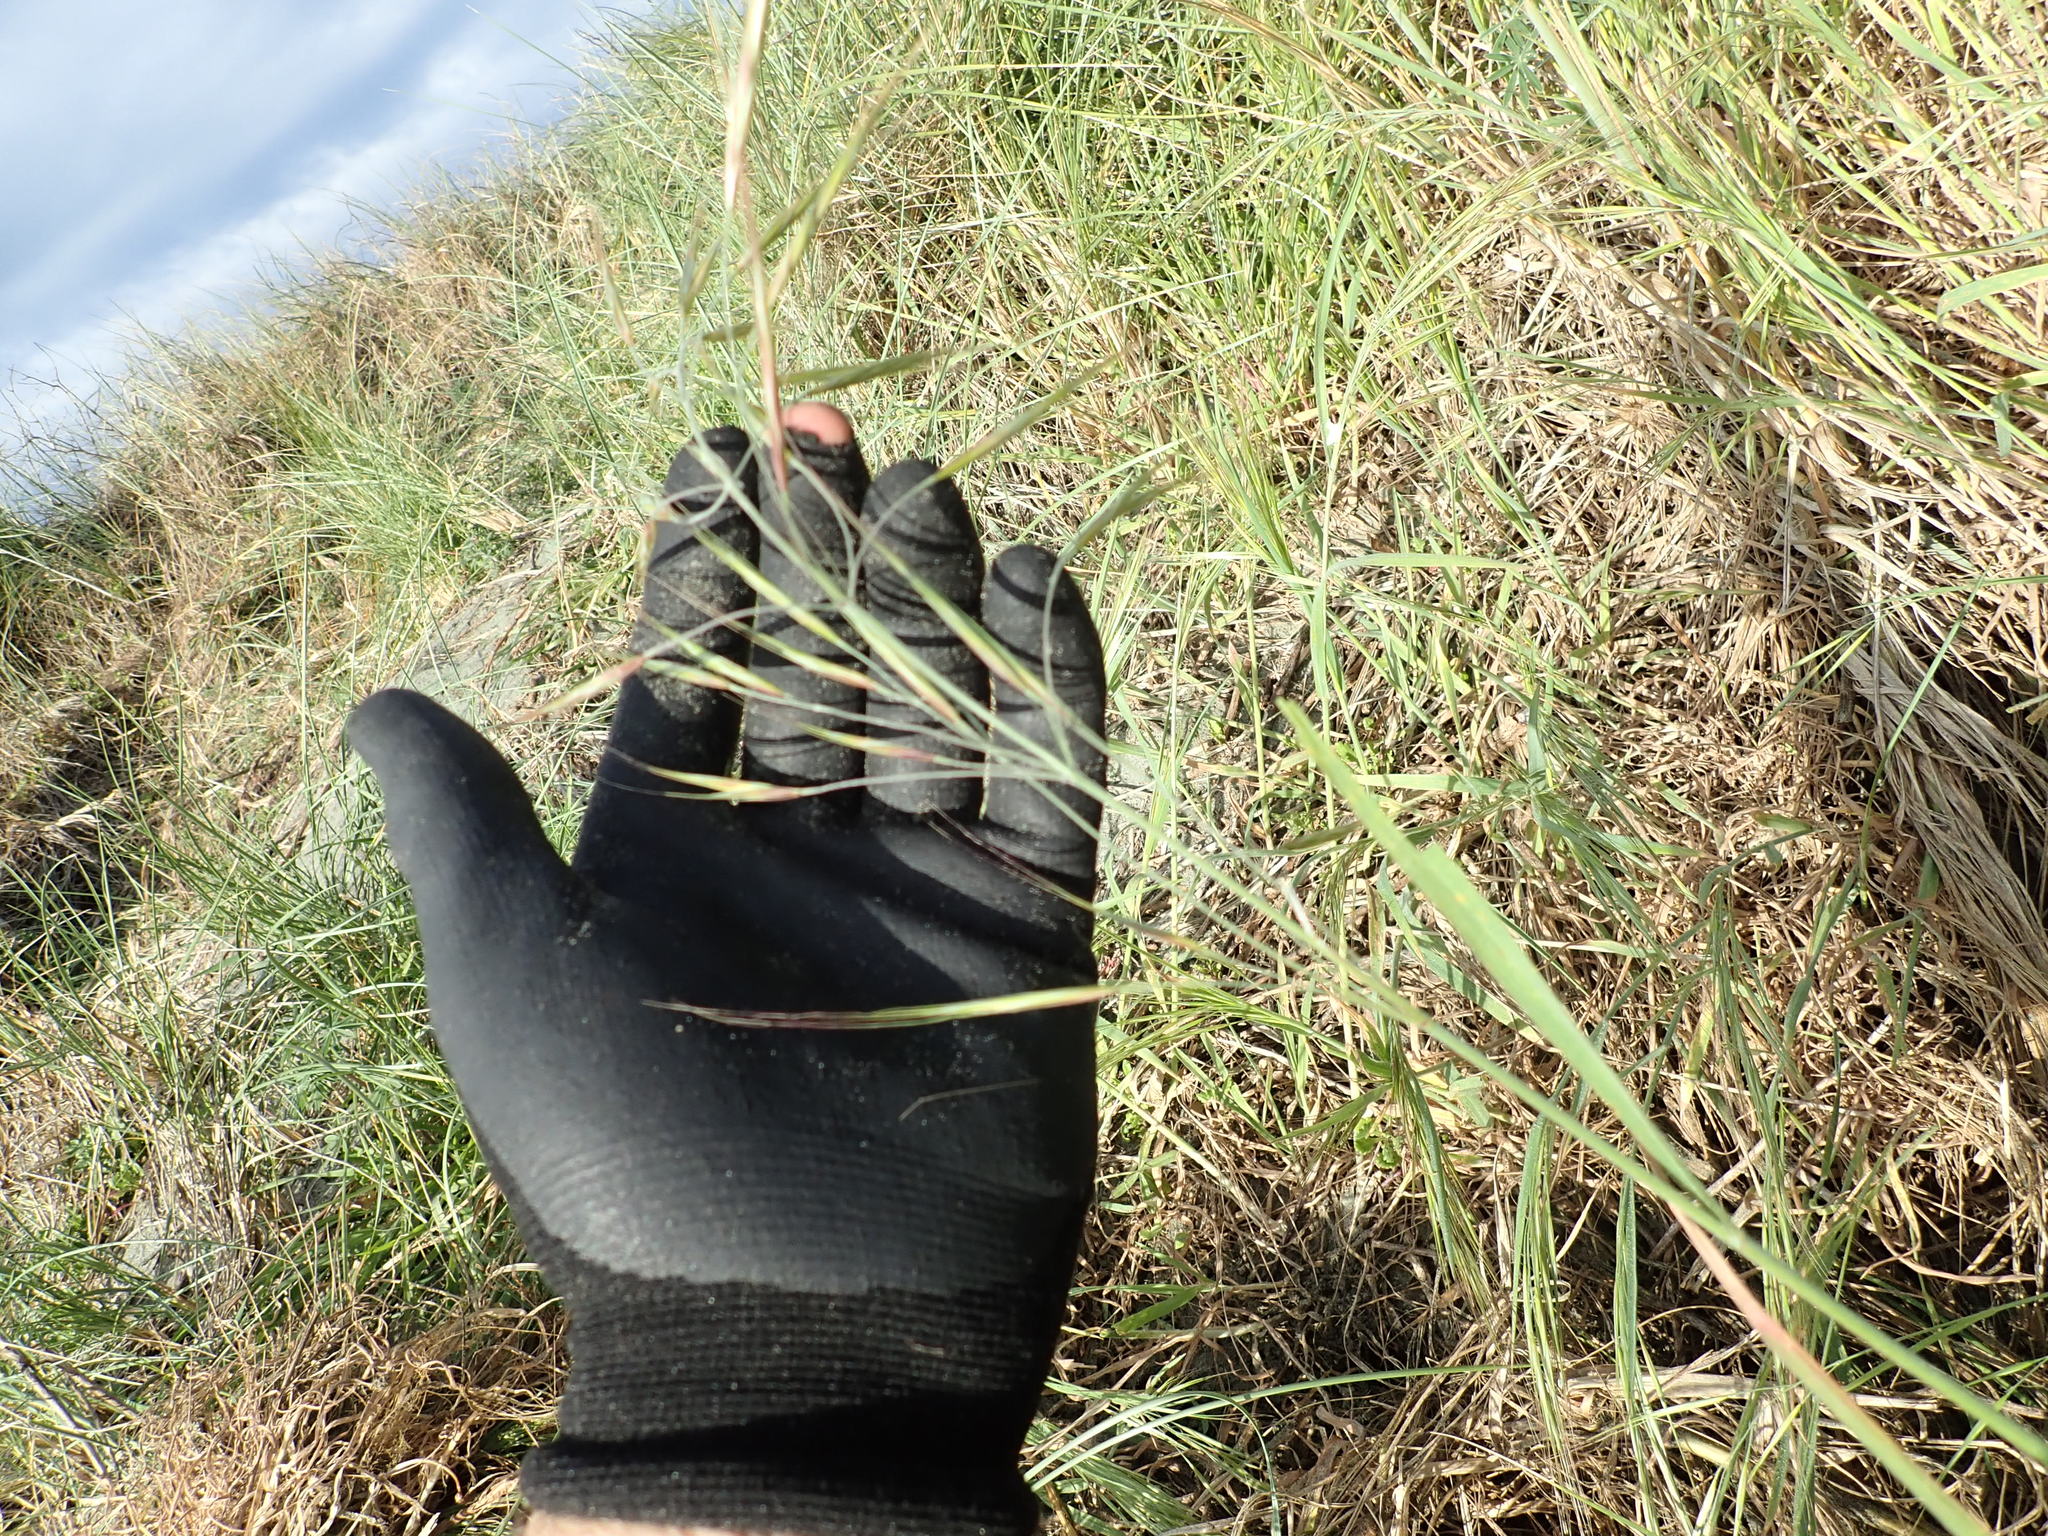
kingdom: Plantae
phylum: Tracheophyta
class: Liliopsida
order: Poales
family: Poaceae
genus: Bromus
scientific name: Bromus diandrus
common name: Ripgut brome
